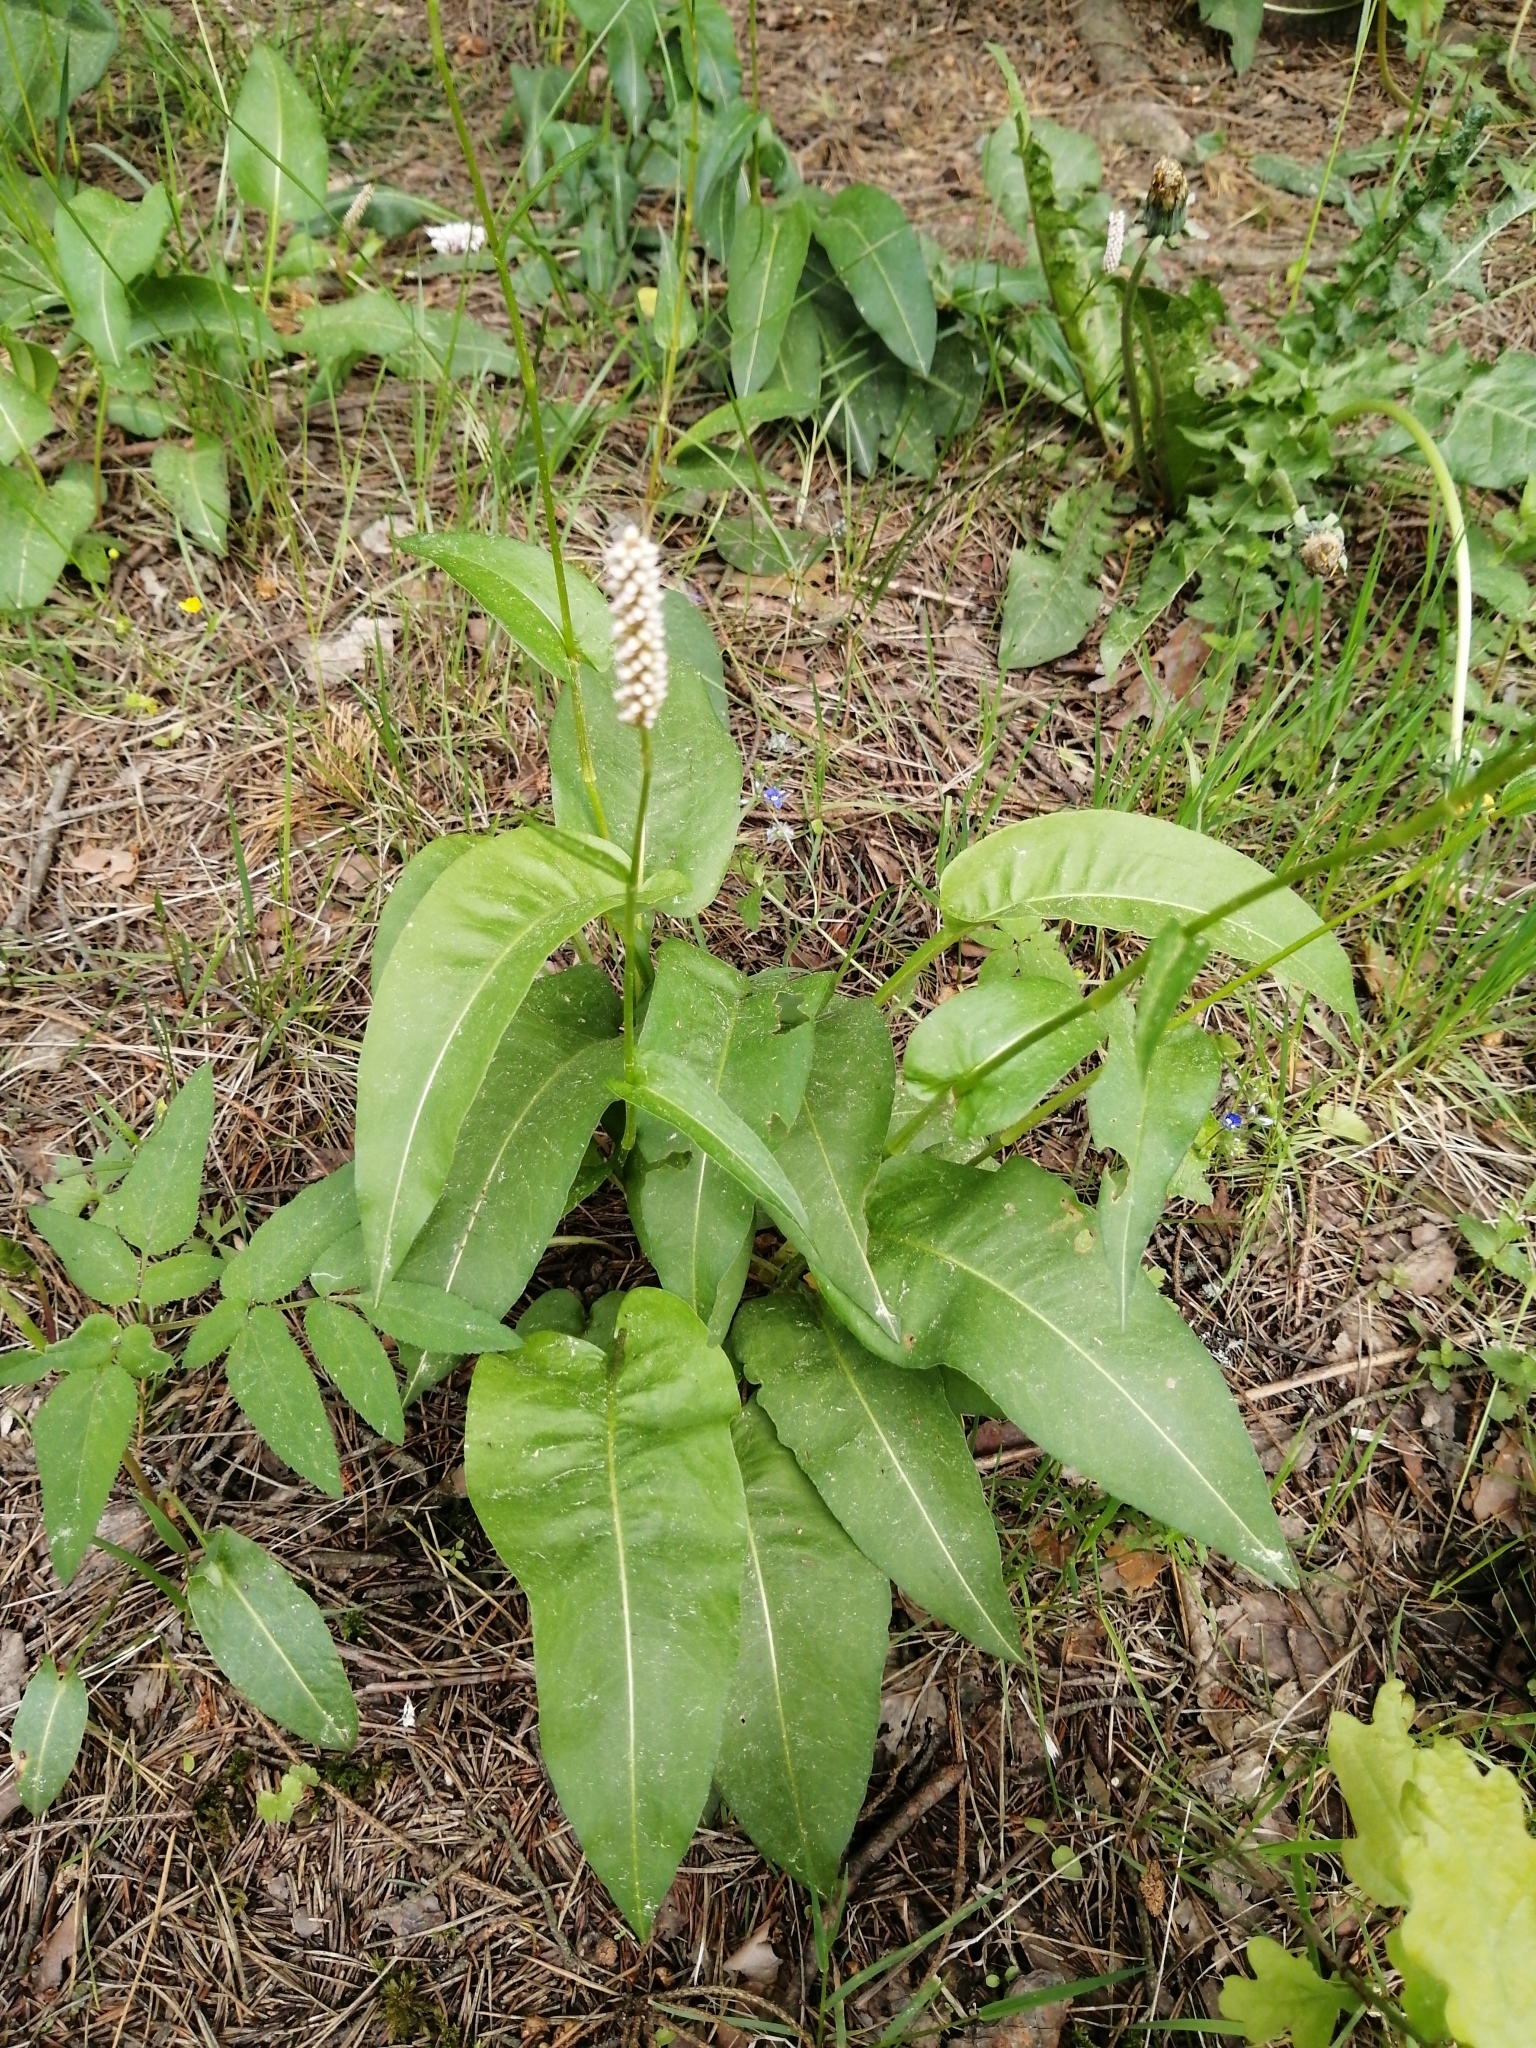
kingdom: Plantae
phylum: Tracheophyta
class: Magnoliopsida
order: Caryophyllales
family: Polygonaceae
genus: Bistorta
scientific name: Bistorta officinalis
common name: Common bistort
